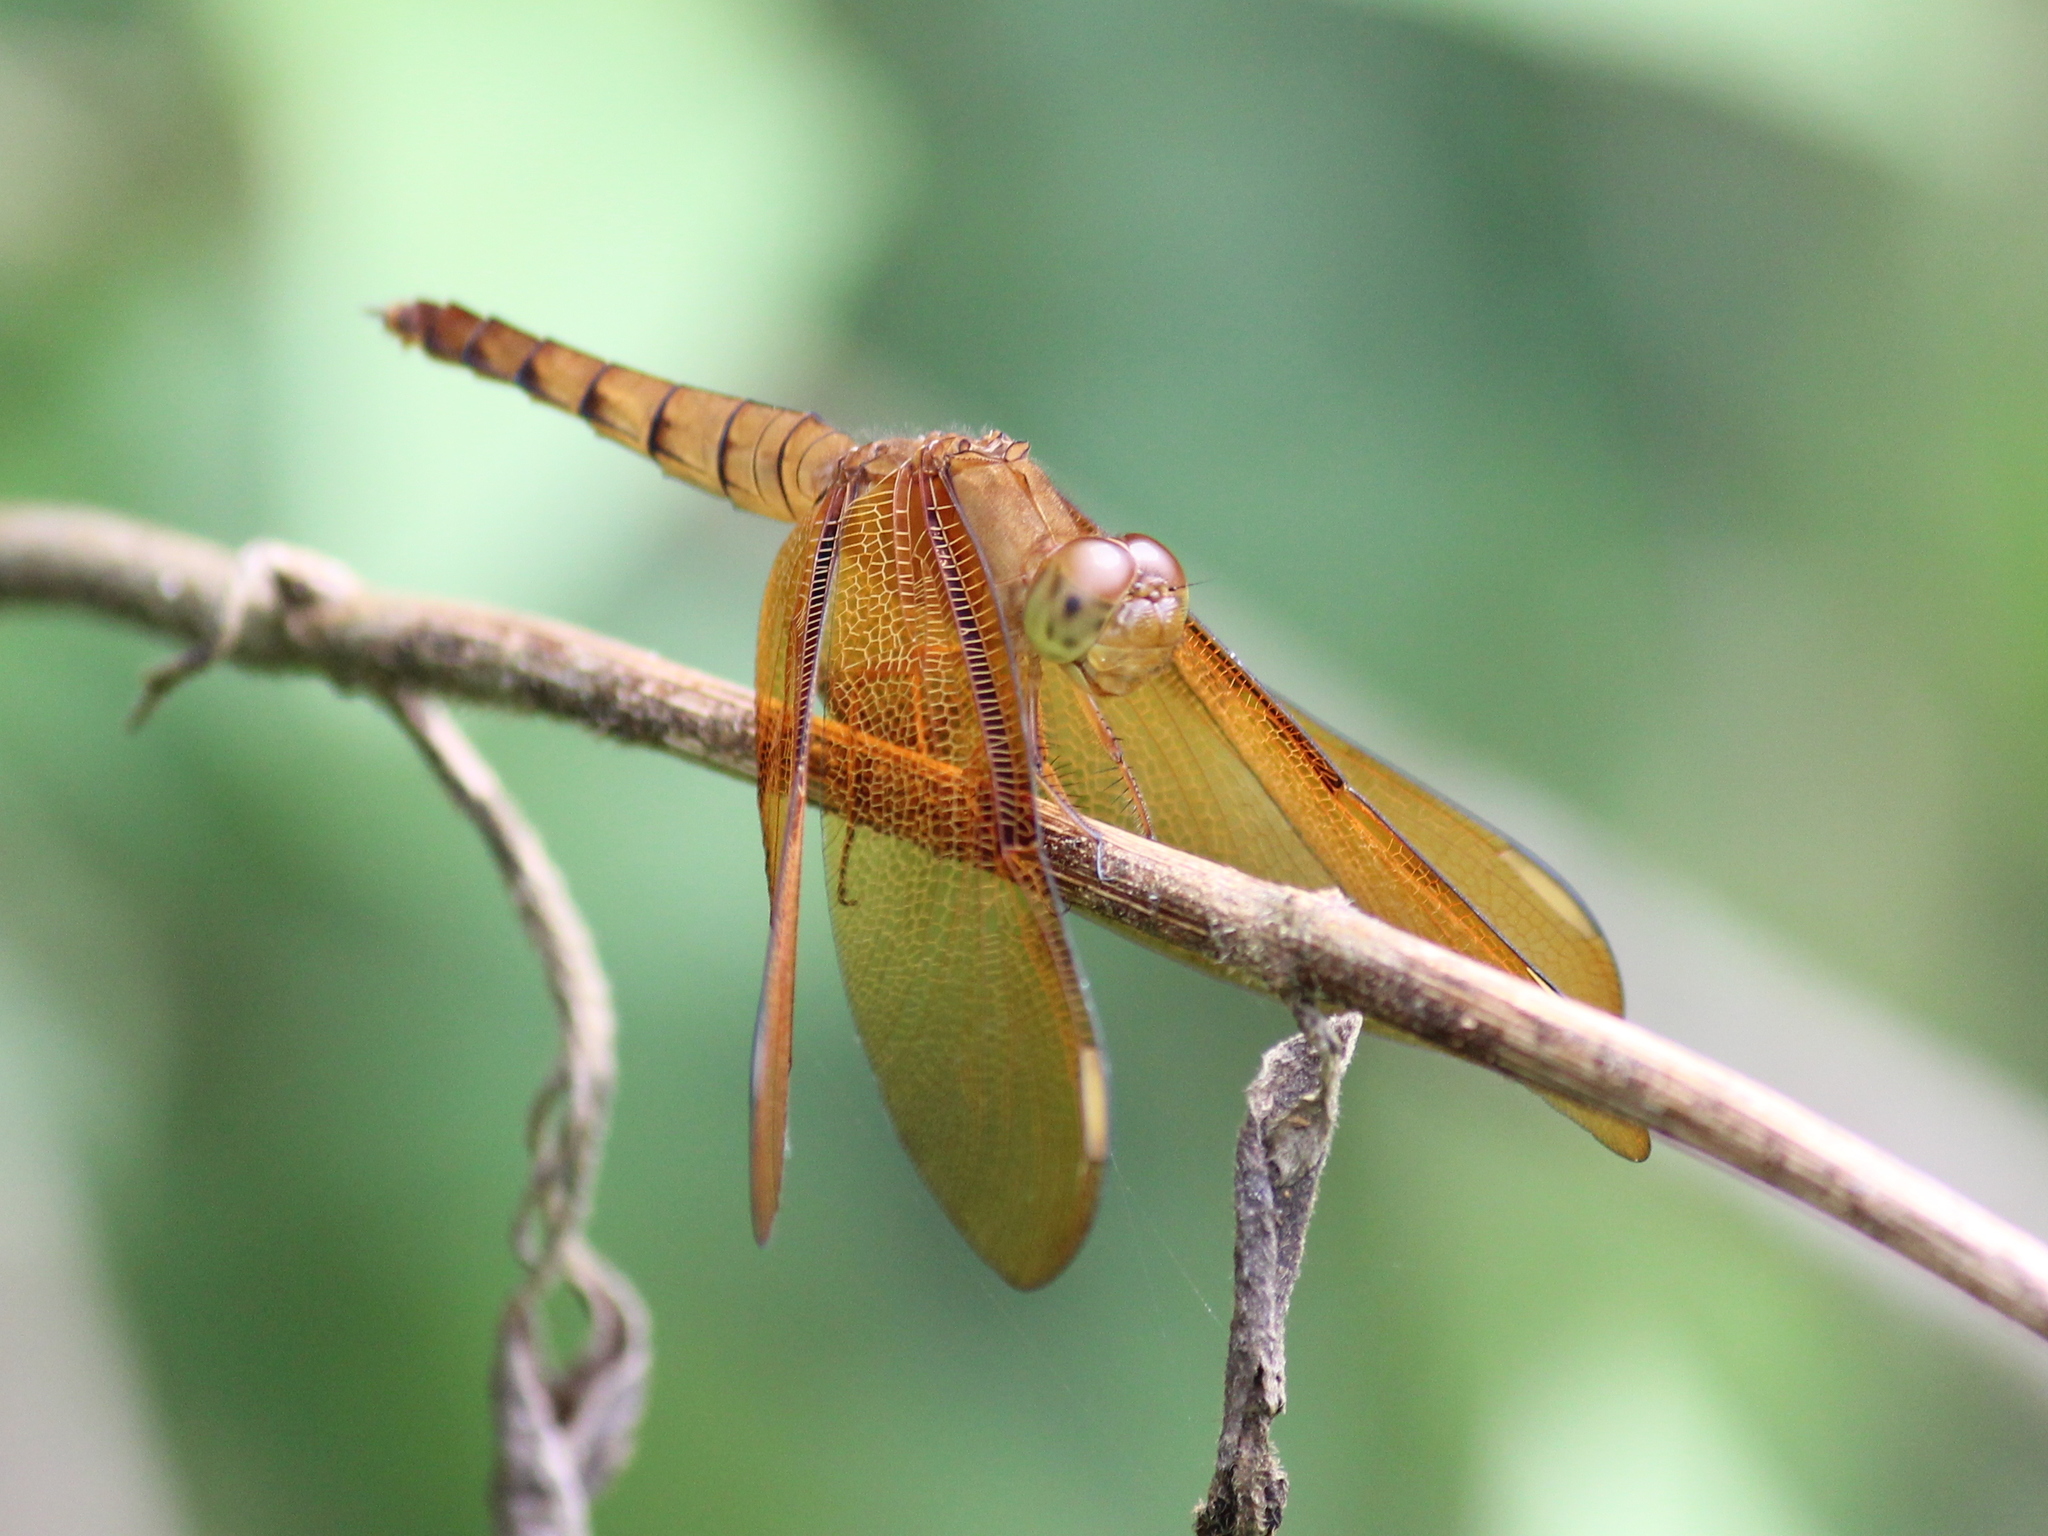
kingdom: Animalia
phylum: Arthropoda
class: Insecta
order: Odonata
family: Libellulidae
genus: Neurothemis
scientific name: Neurothemis fulvia
